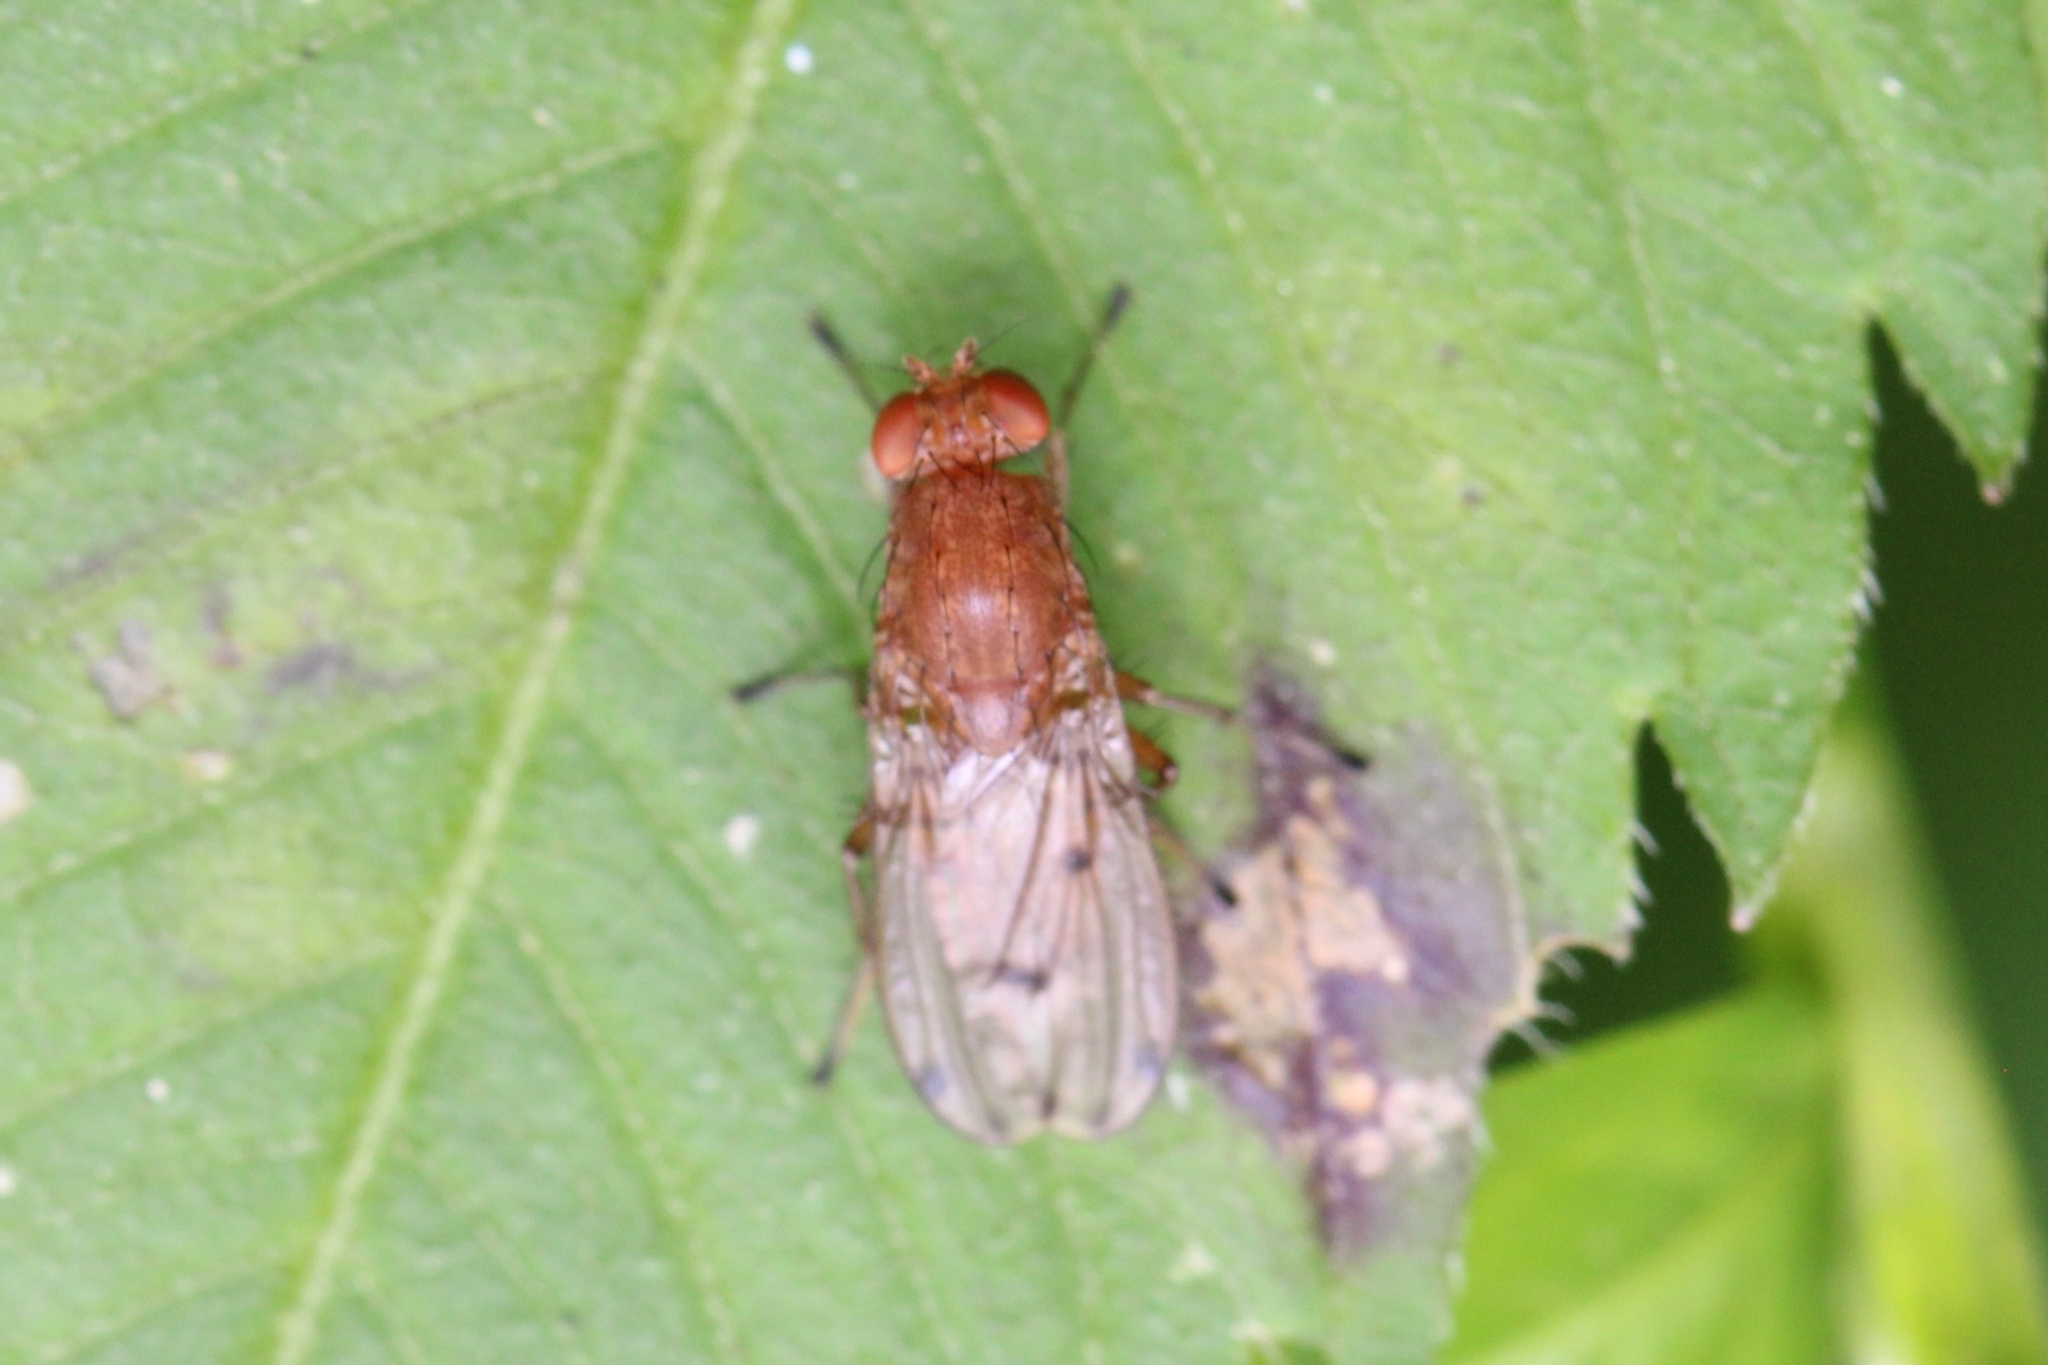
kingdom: Animalia
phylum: Arthropoda
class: Insecta
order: Diptera
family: Heleomyzidae
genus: Suillia
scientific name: Suillia quinquepunctata
